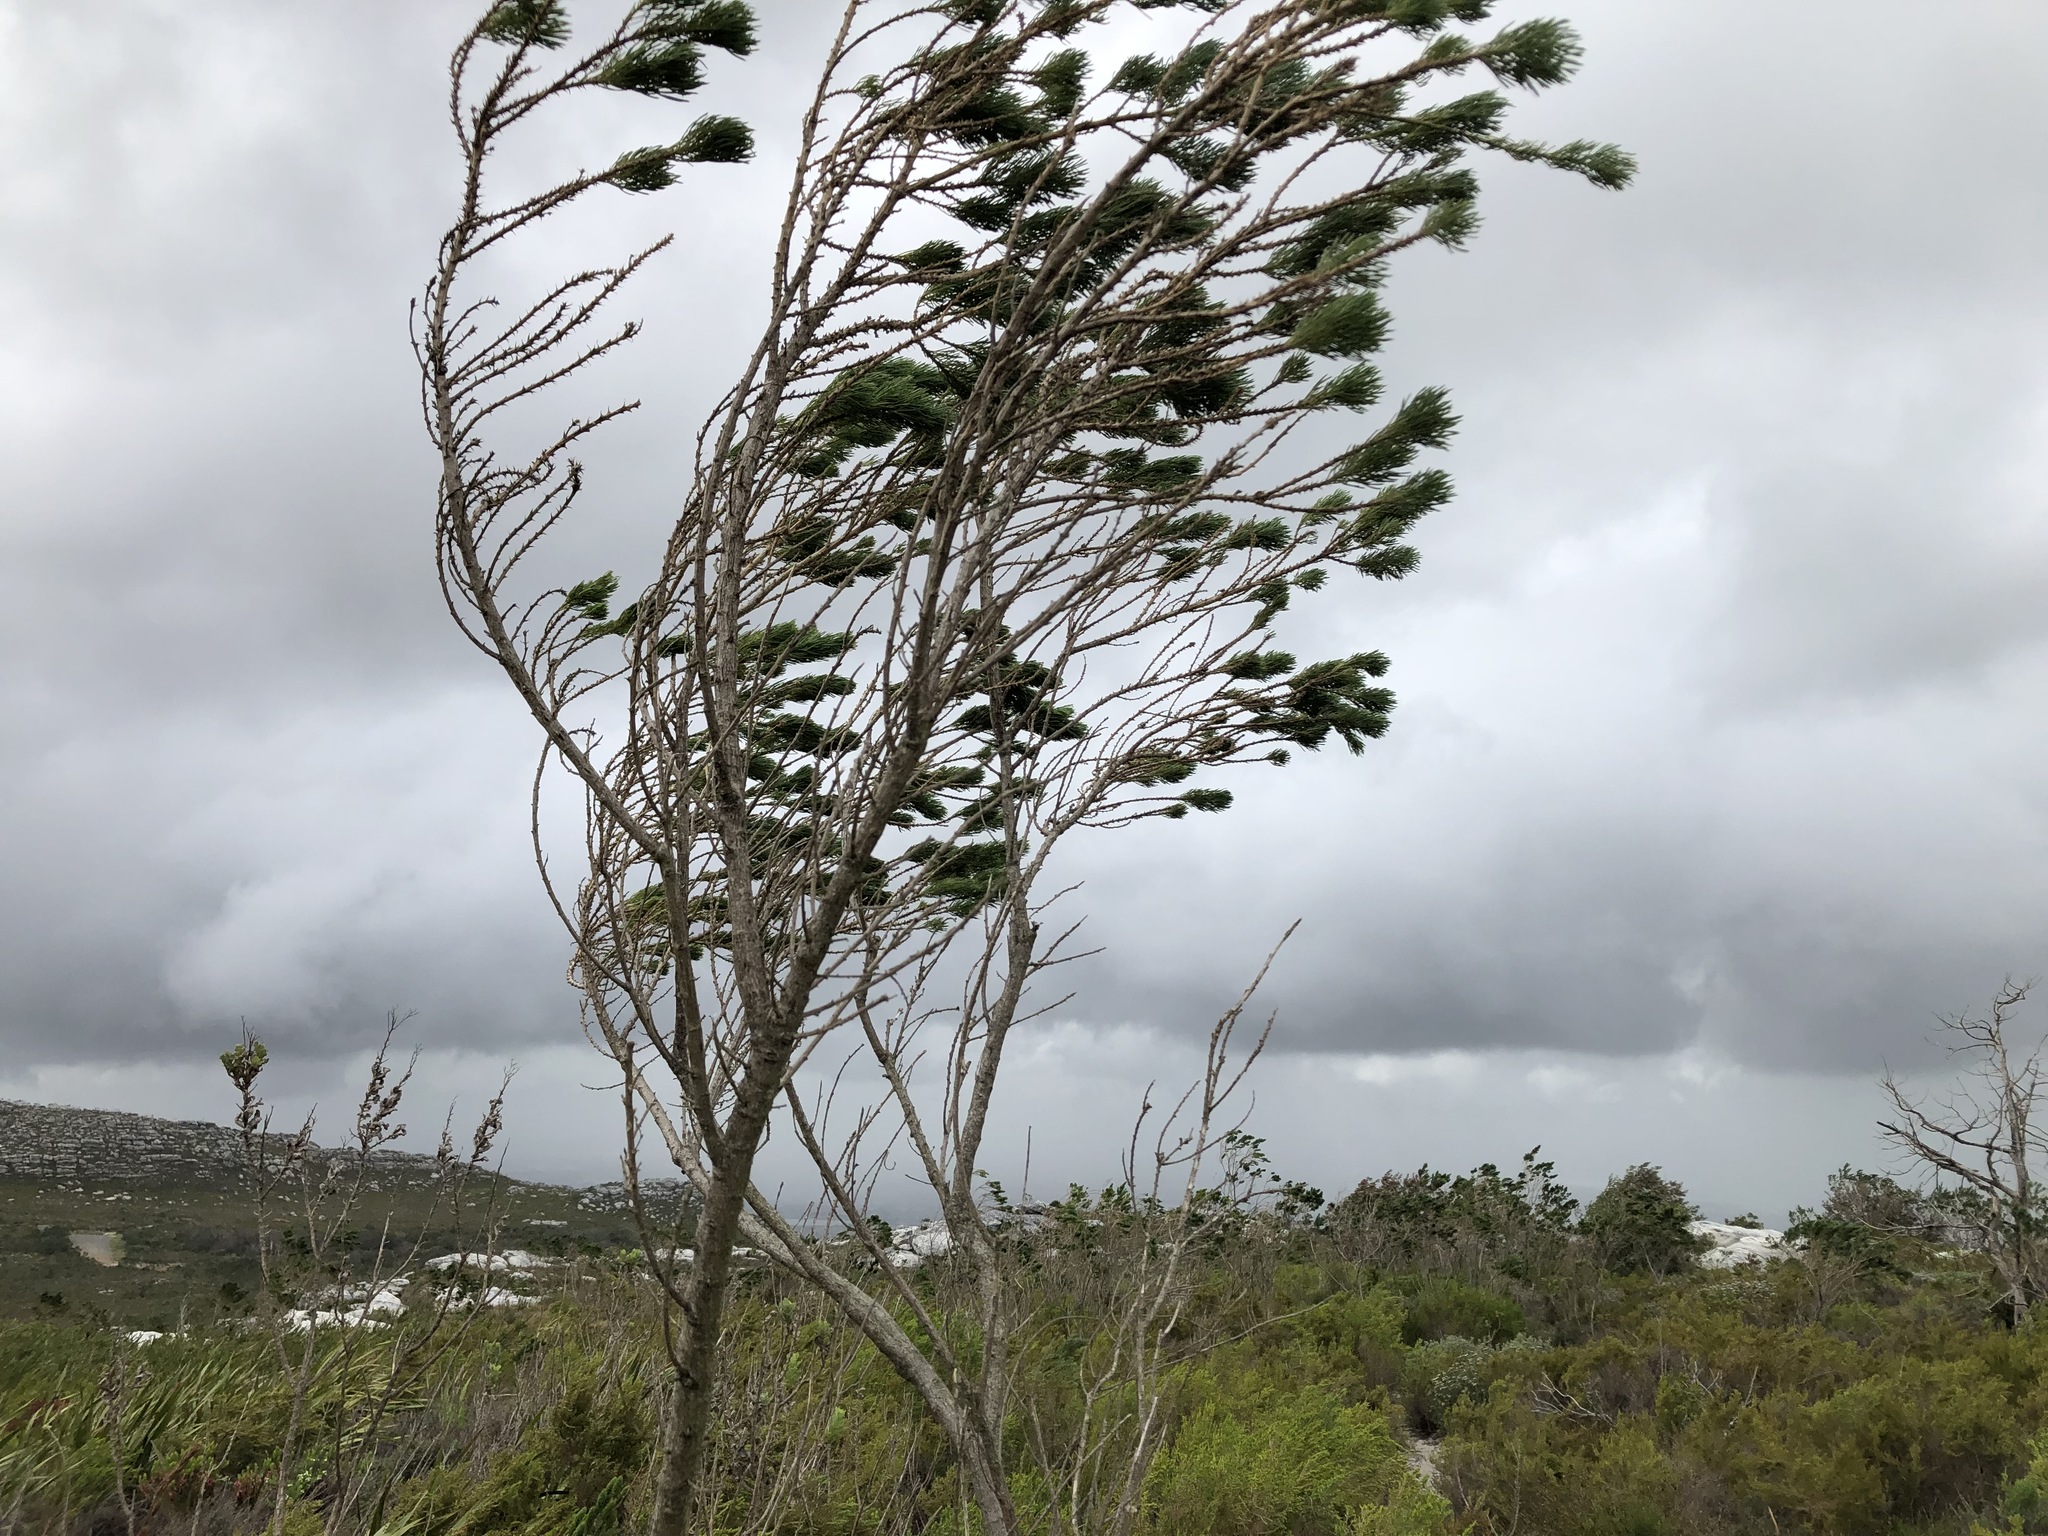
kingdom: Plantae
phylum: Tracheophyta
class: Magnoliopsida
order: Fabales
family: Fabaceae
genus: Psoralea
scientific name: Psoralea pinnata
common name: African scurfpea
